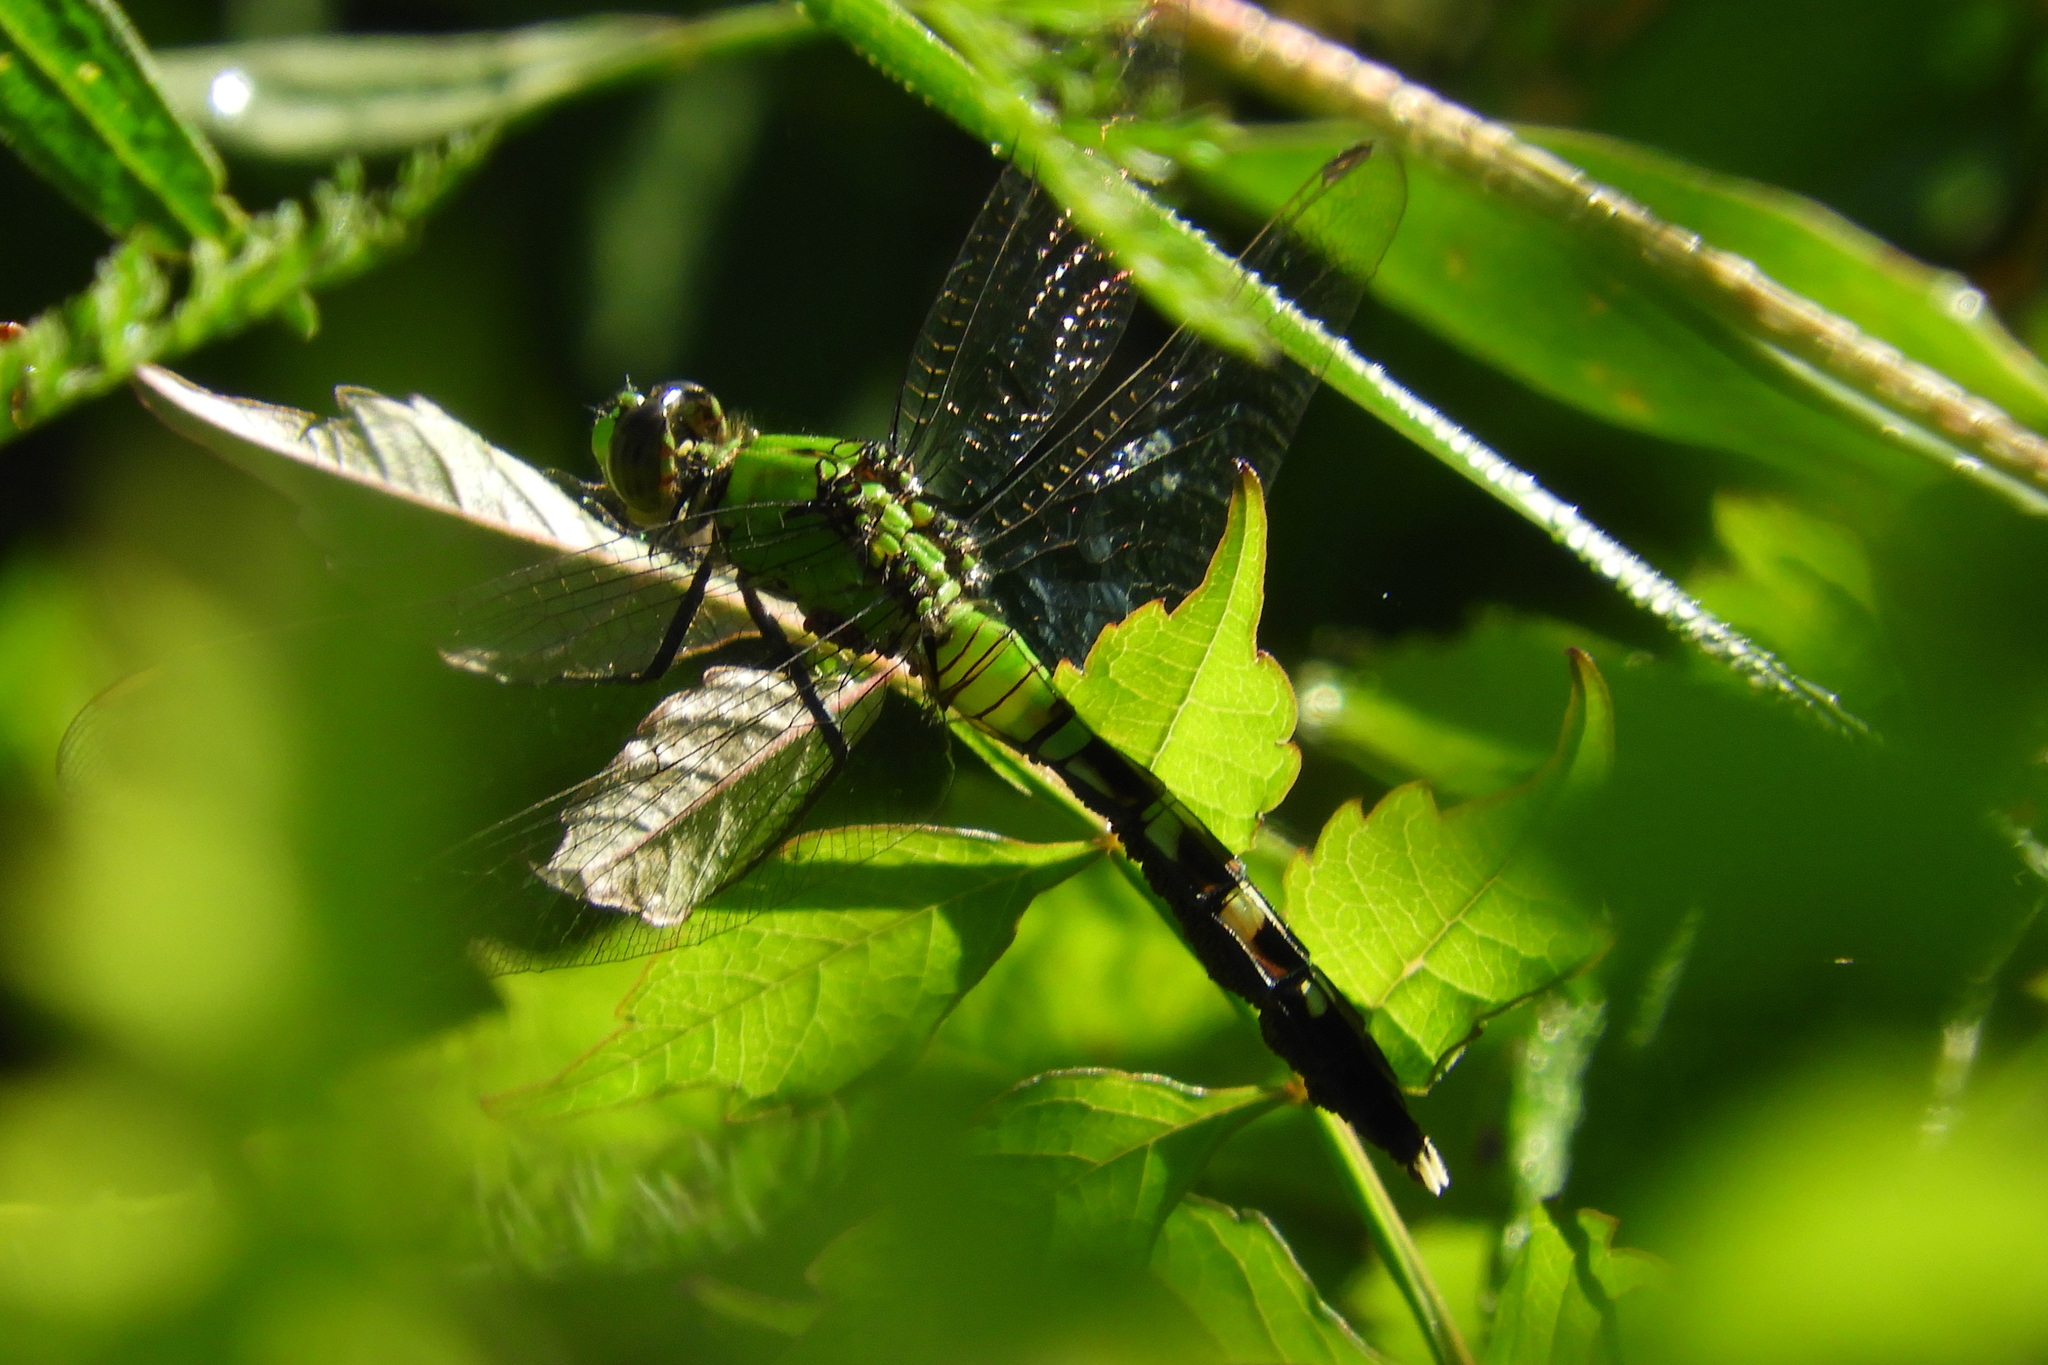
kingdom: Animalia
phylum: Arthropoda
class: Insecta
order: Odonata
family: Libellulidae
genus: Erythemis
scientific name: Erythemis simplicicollis
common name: Eastern pondhawk
